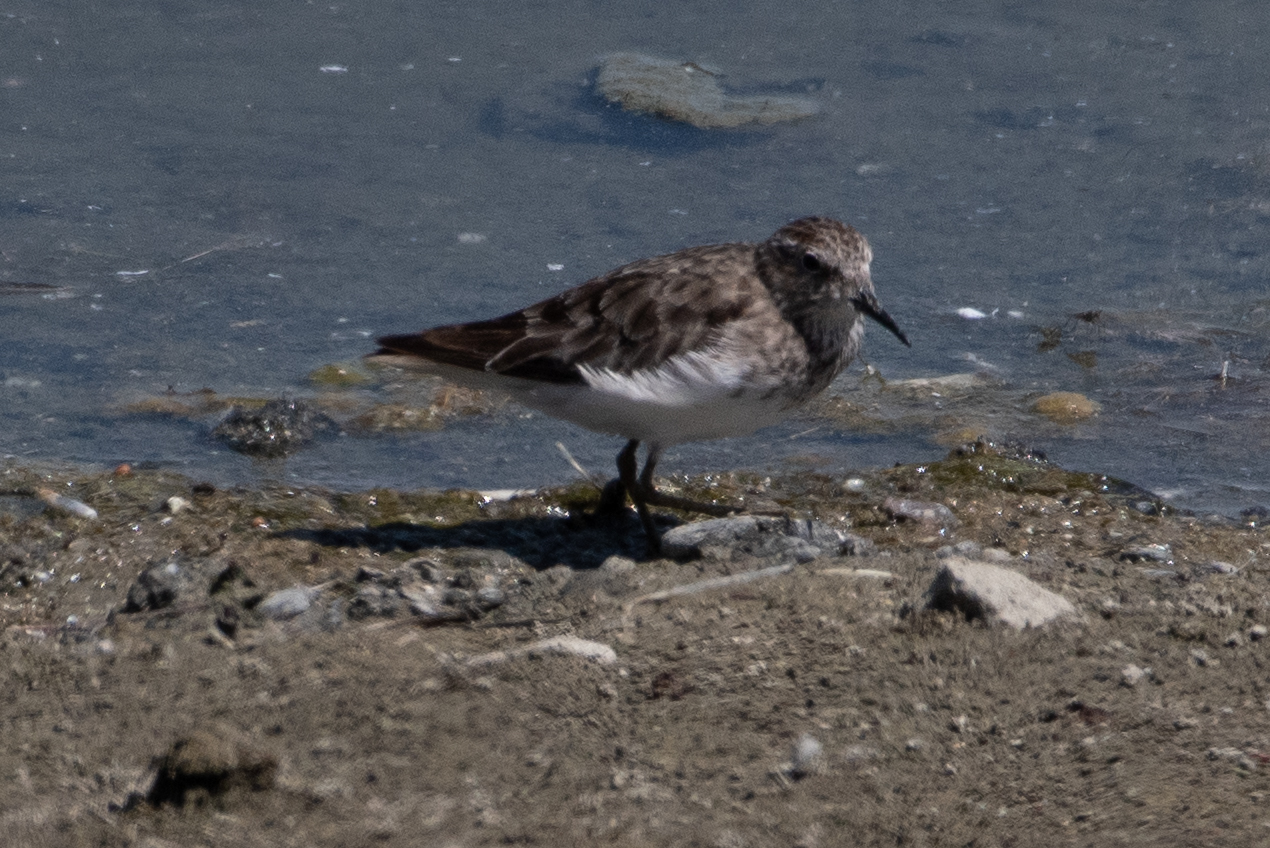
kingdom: Animalia
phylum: Chordata
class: Aves
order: Charadriiformes
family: Scolopacidae
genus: Calidris
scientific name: Calidris minutilla
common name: Least sandpiper
